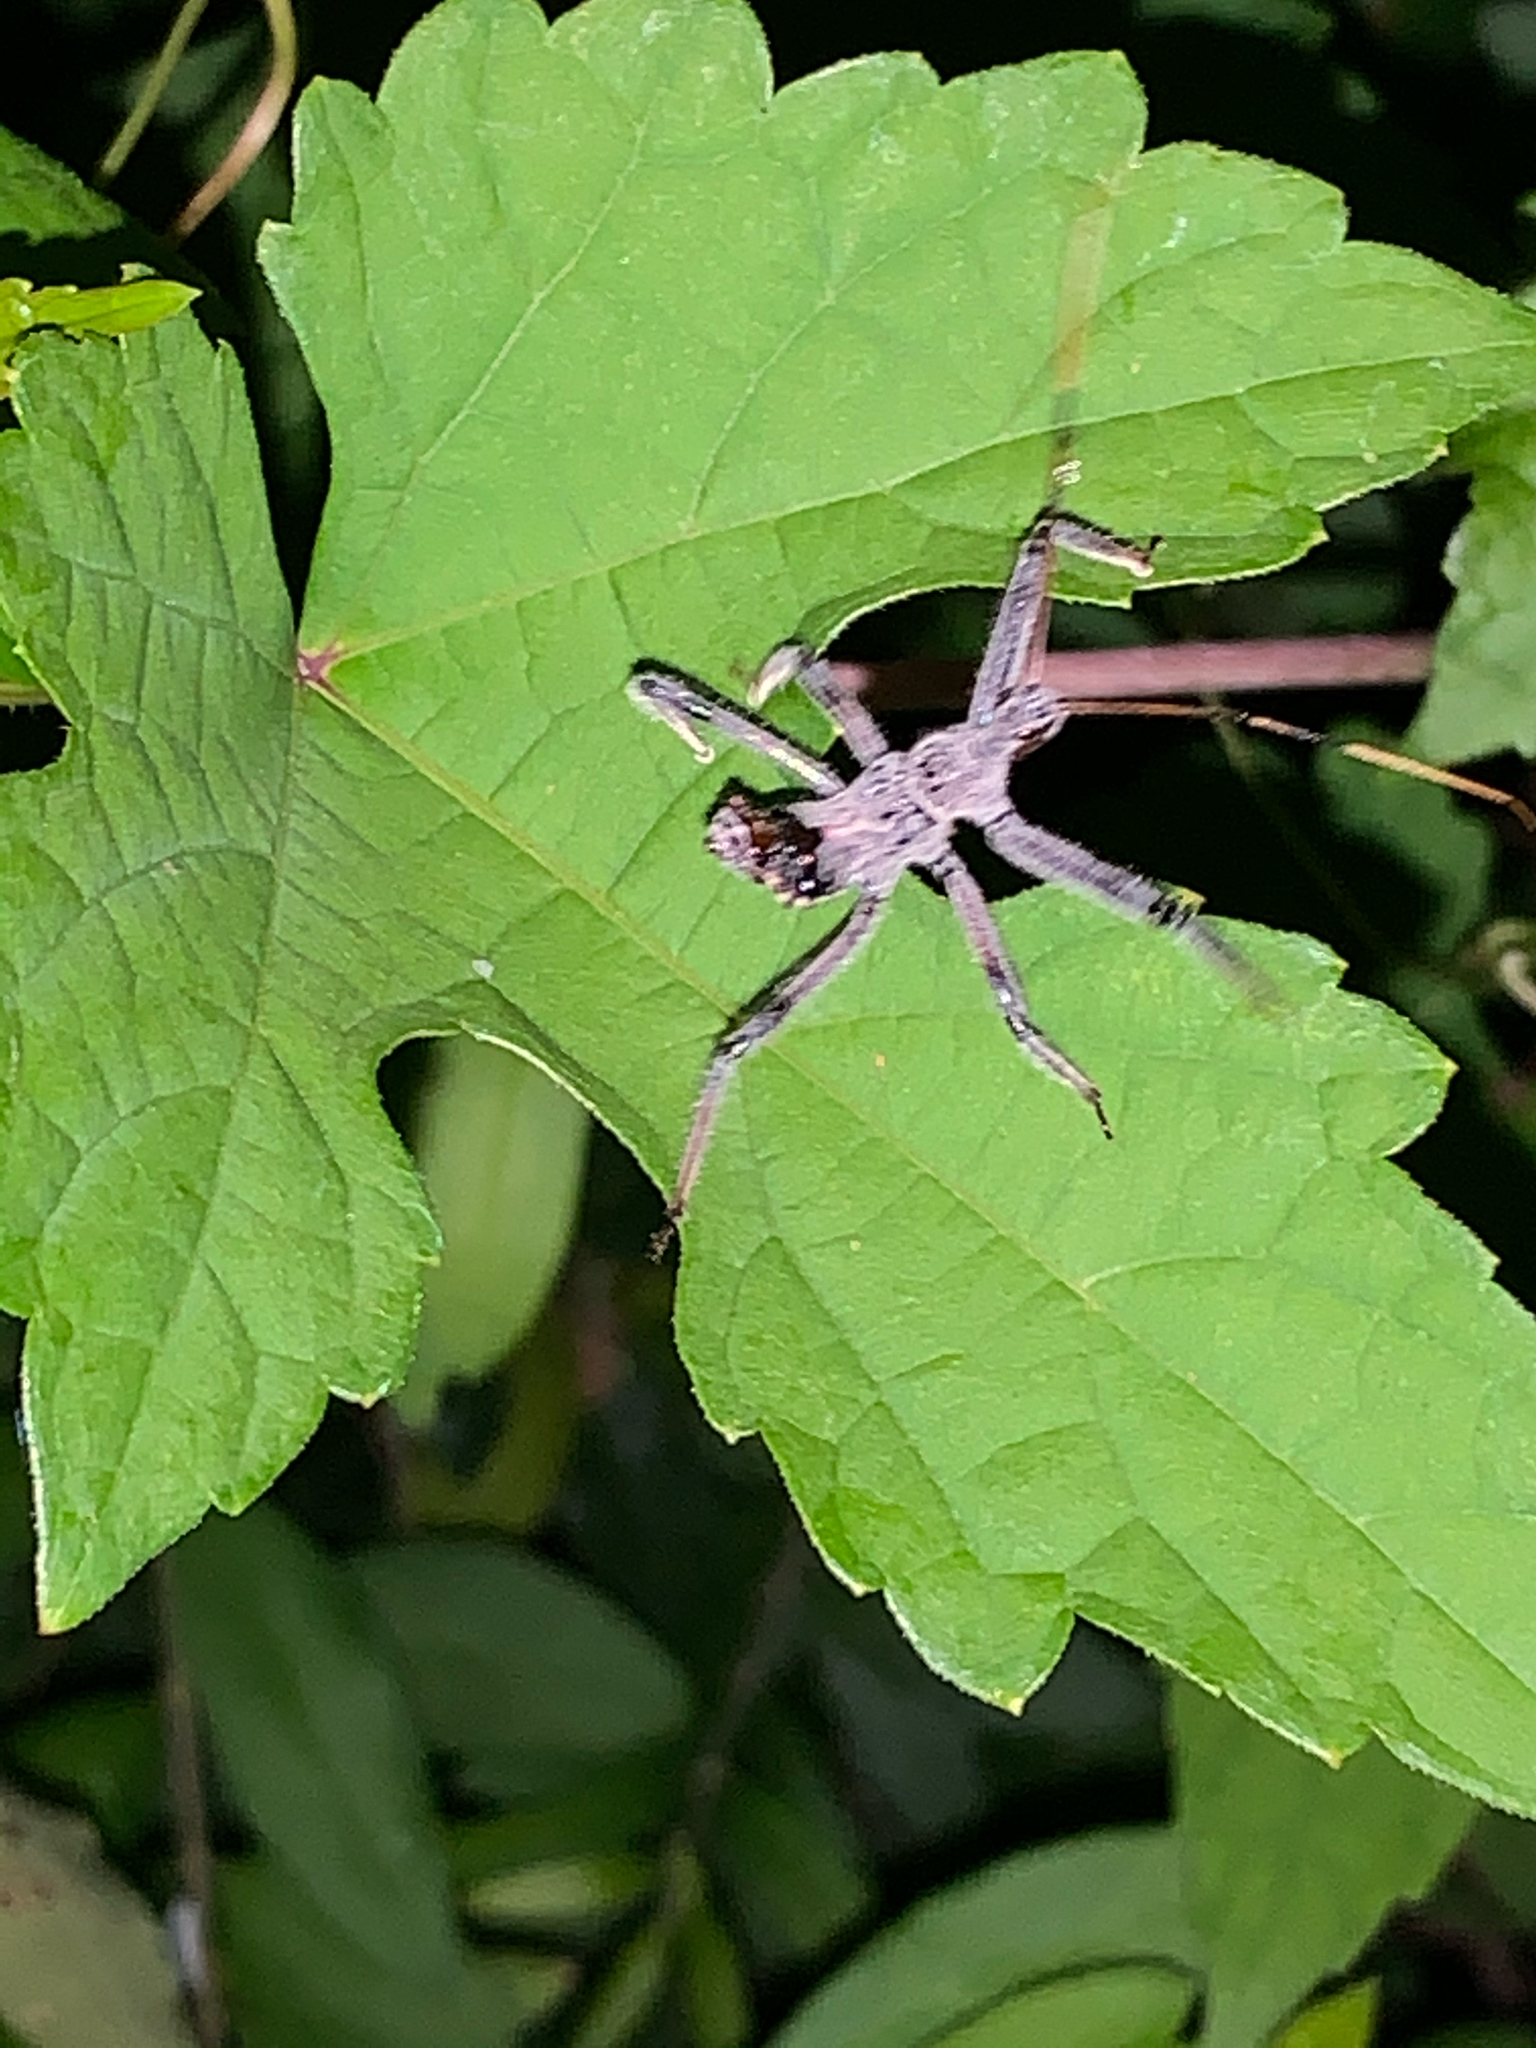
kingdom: Animalia
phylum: Arthropoda
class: Insecta
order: Hemiptera
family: Reduviidae
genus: Arilus
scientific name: Arilus cristatus
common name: North american wheel bug
